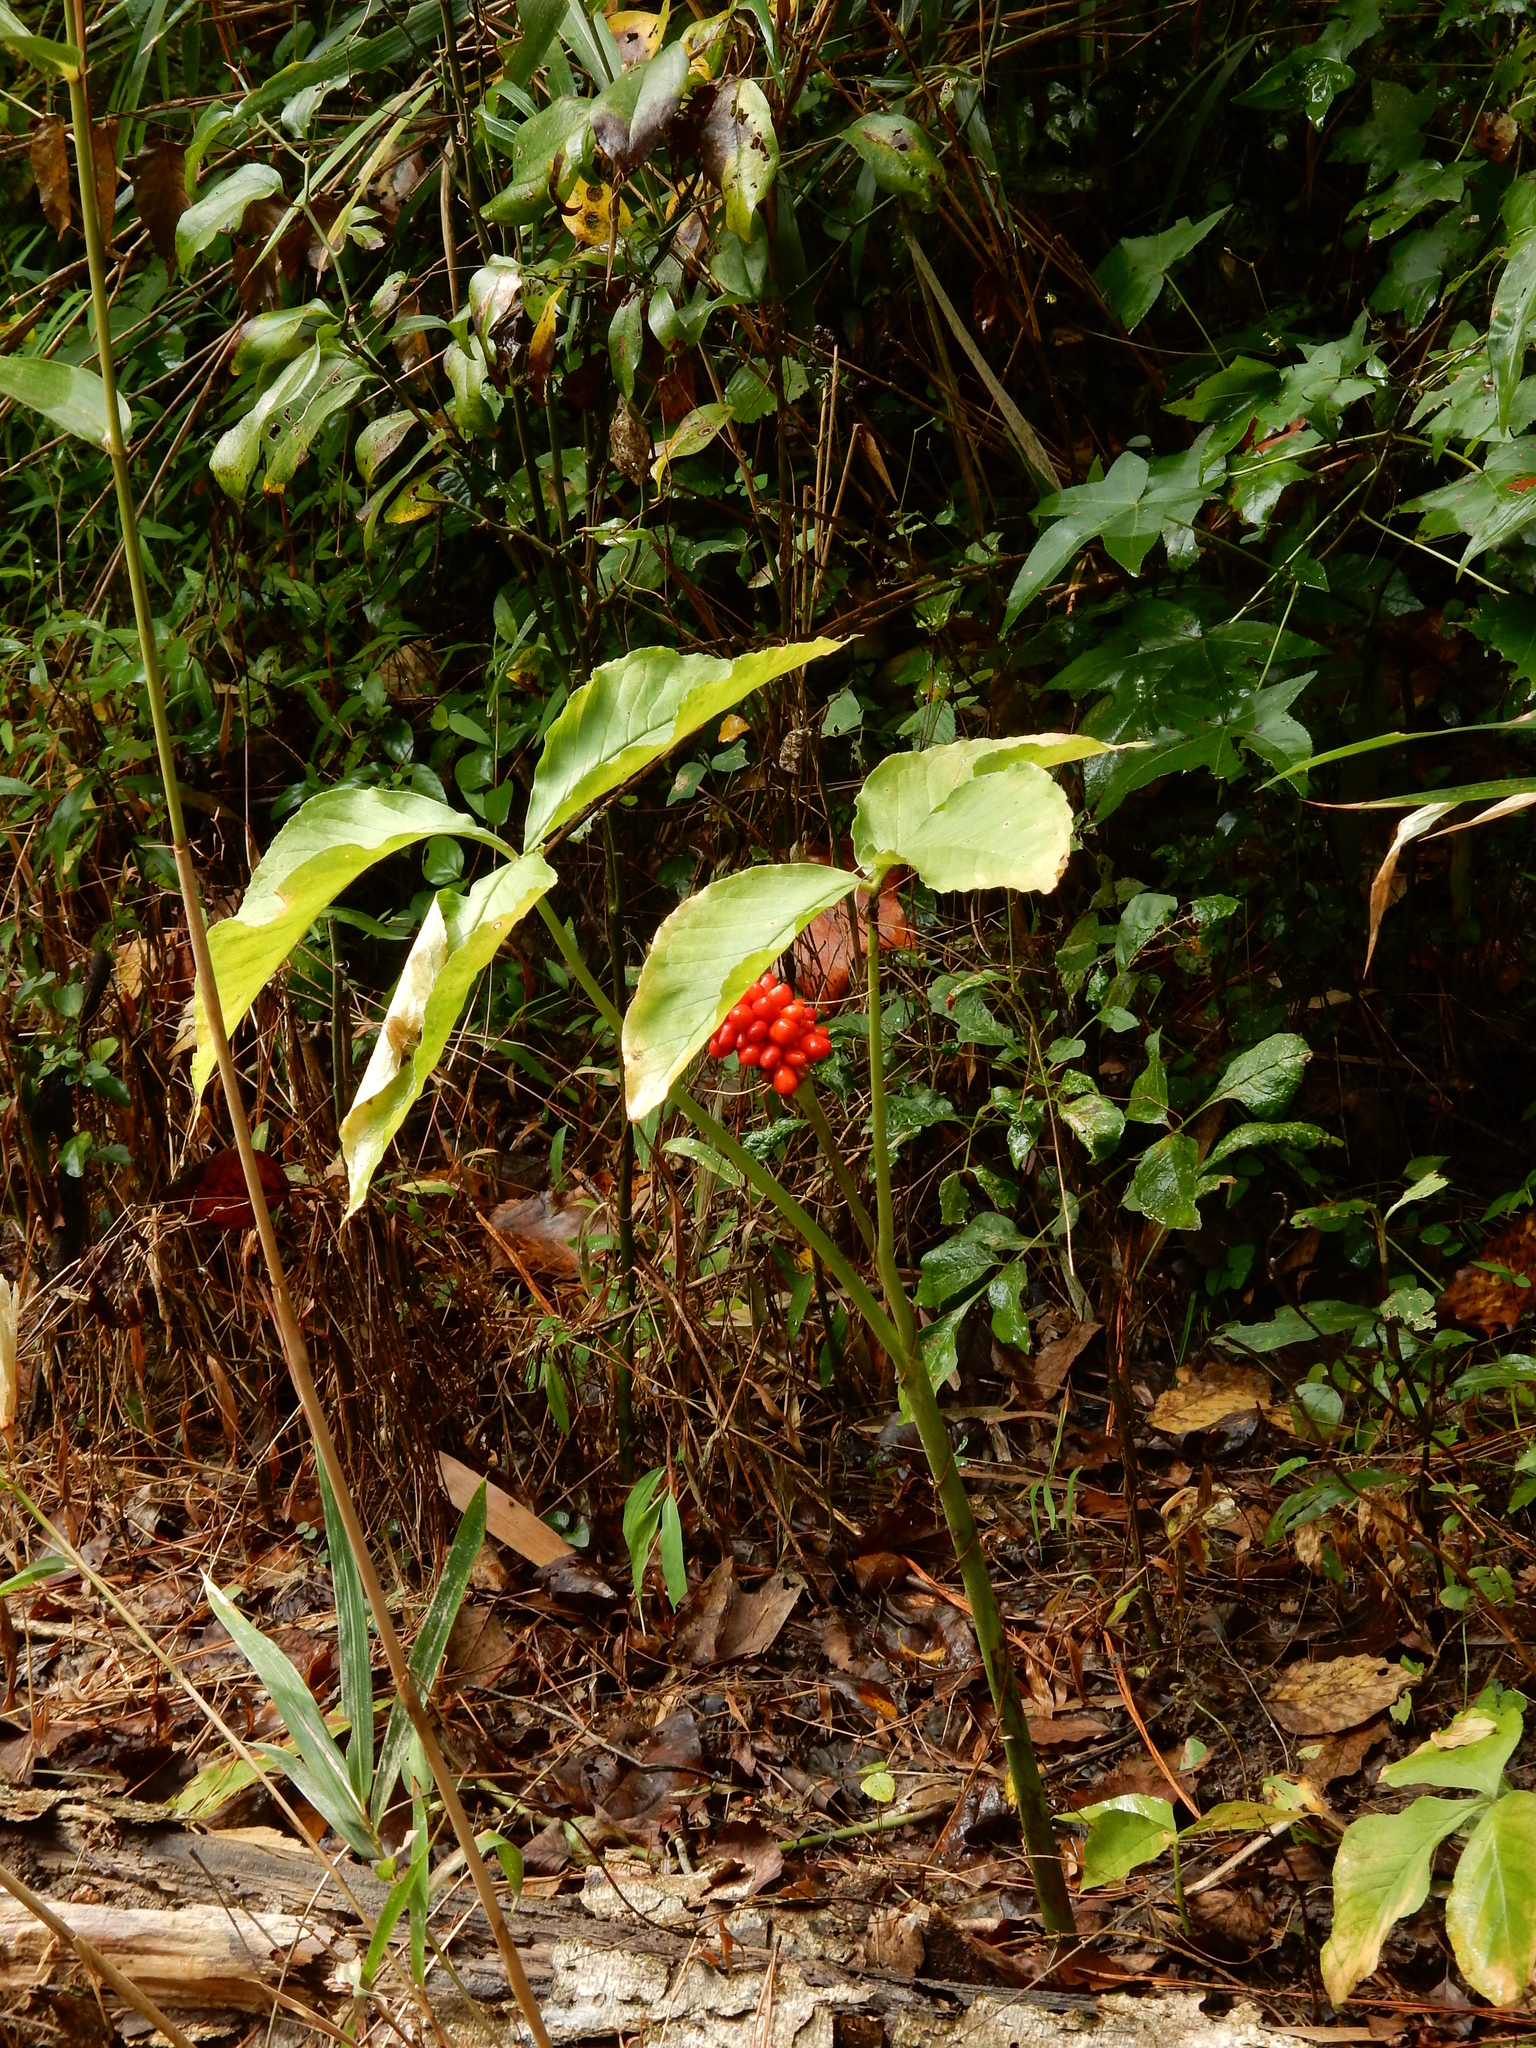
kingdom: Plantae
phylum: Tracheophyta
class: Liliopsida
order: Alismatales
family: Araceae
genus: Arisaema
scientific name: Arisaema triphyllum
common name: Jack-in-the-pulpit
